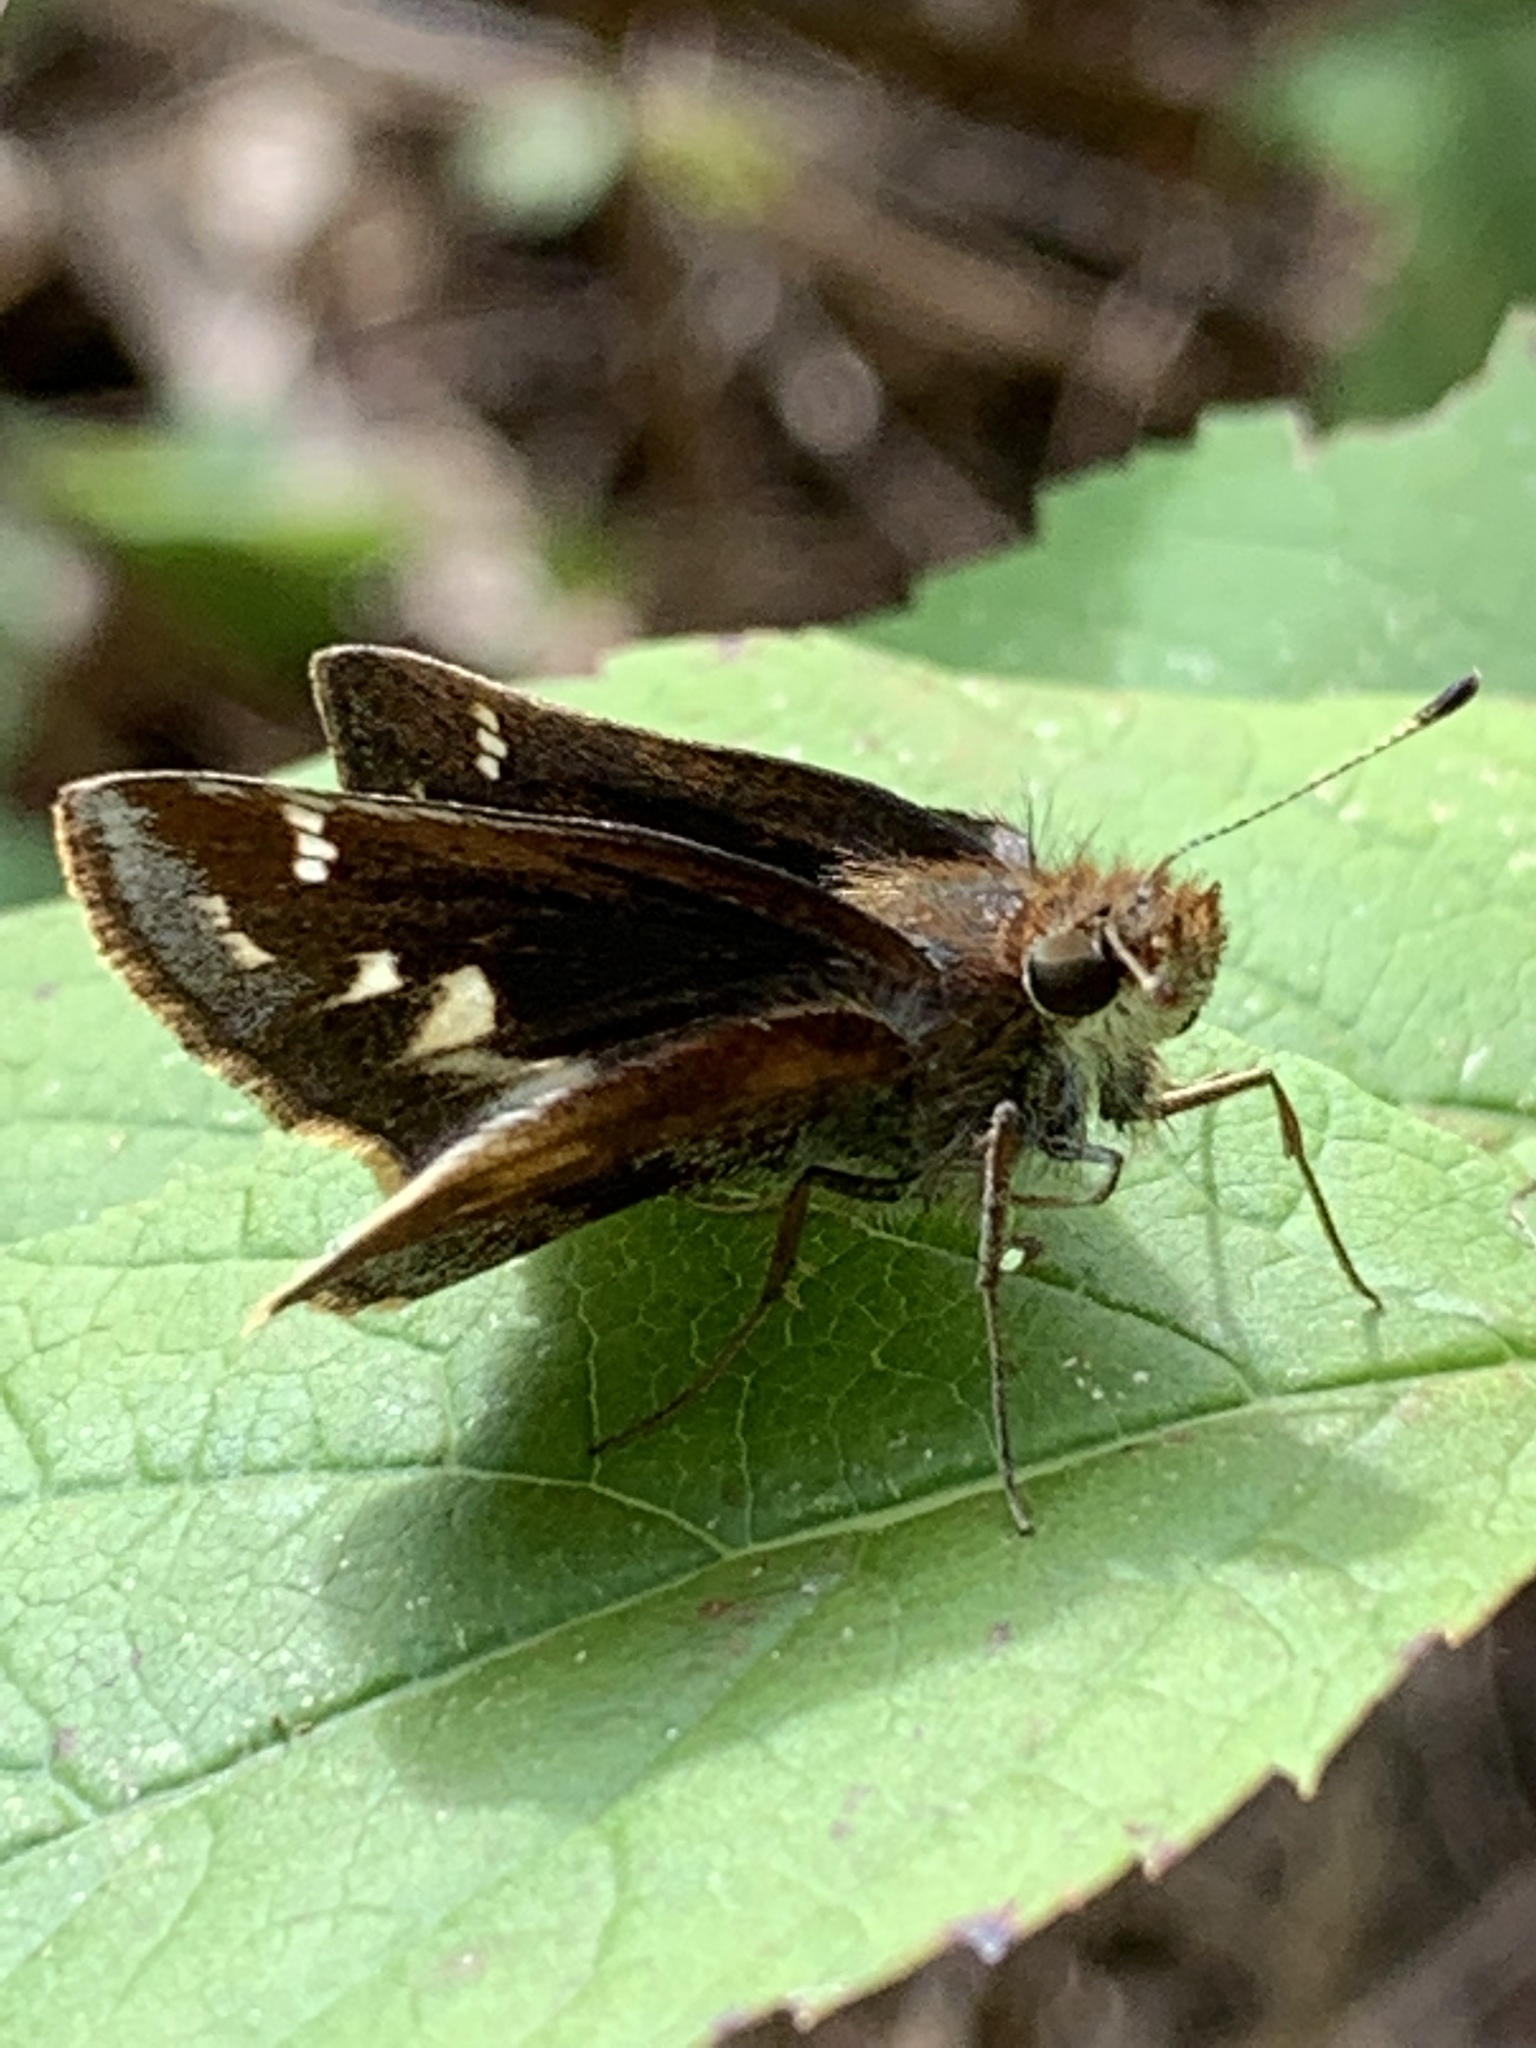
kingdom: Animalia
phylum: Arthropoda
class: Insecta
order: Lepidoptera
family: Hesperiidae
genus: Lon
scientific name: Lon zabulon
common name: Zabulon skipper
